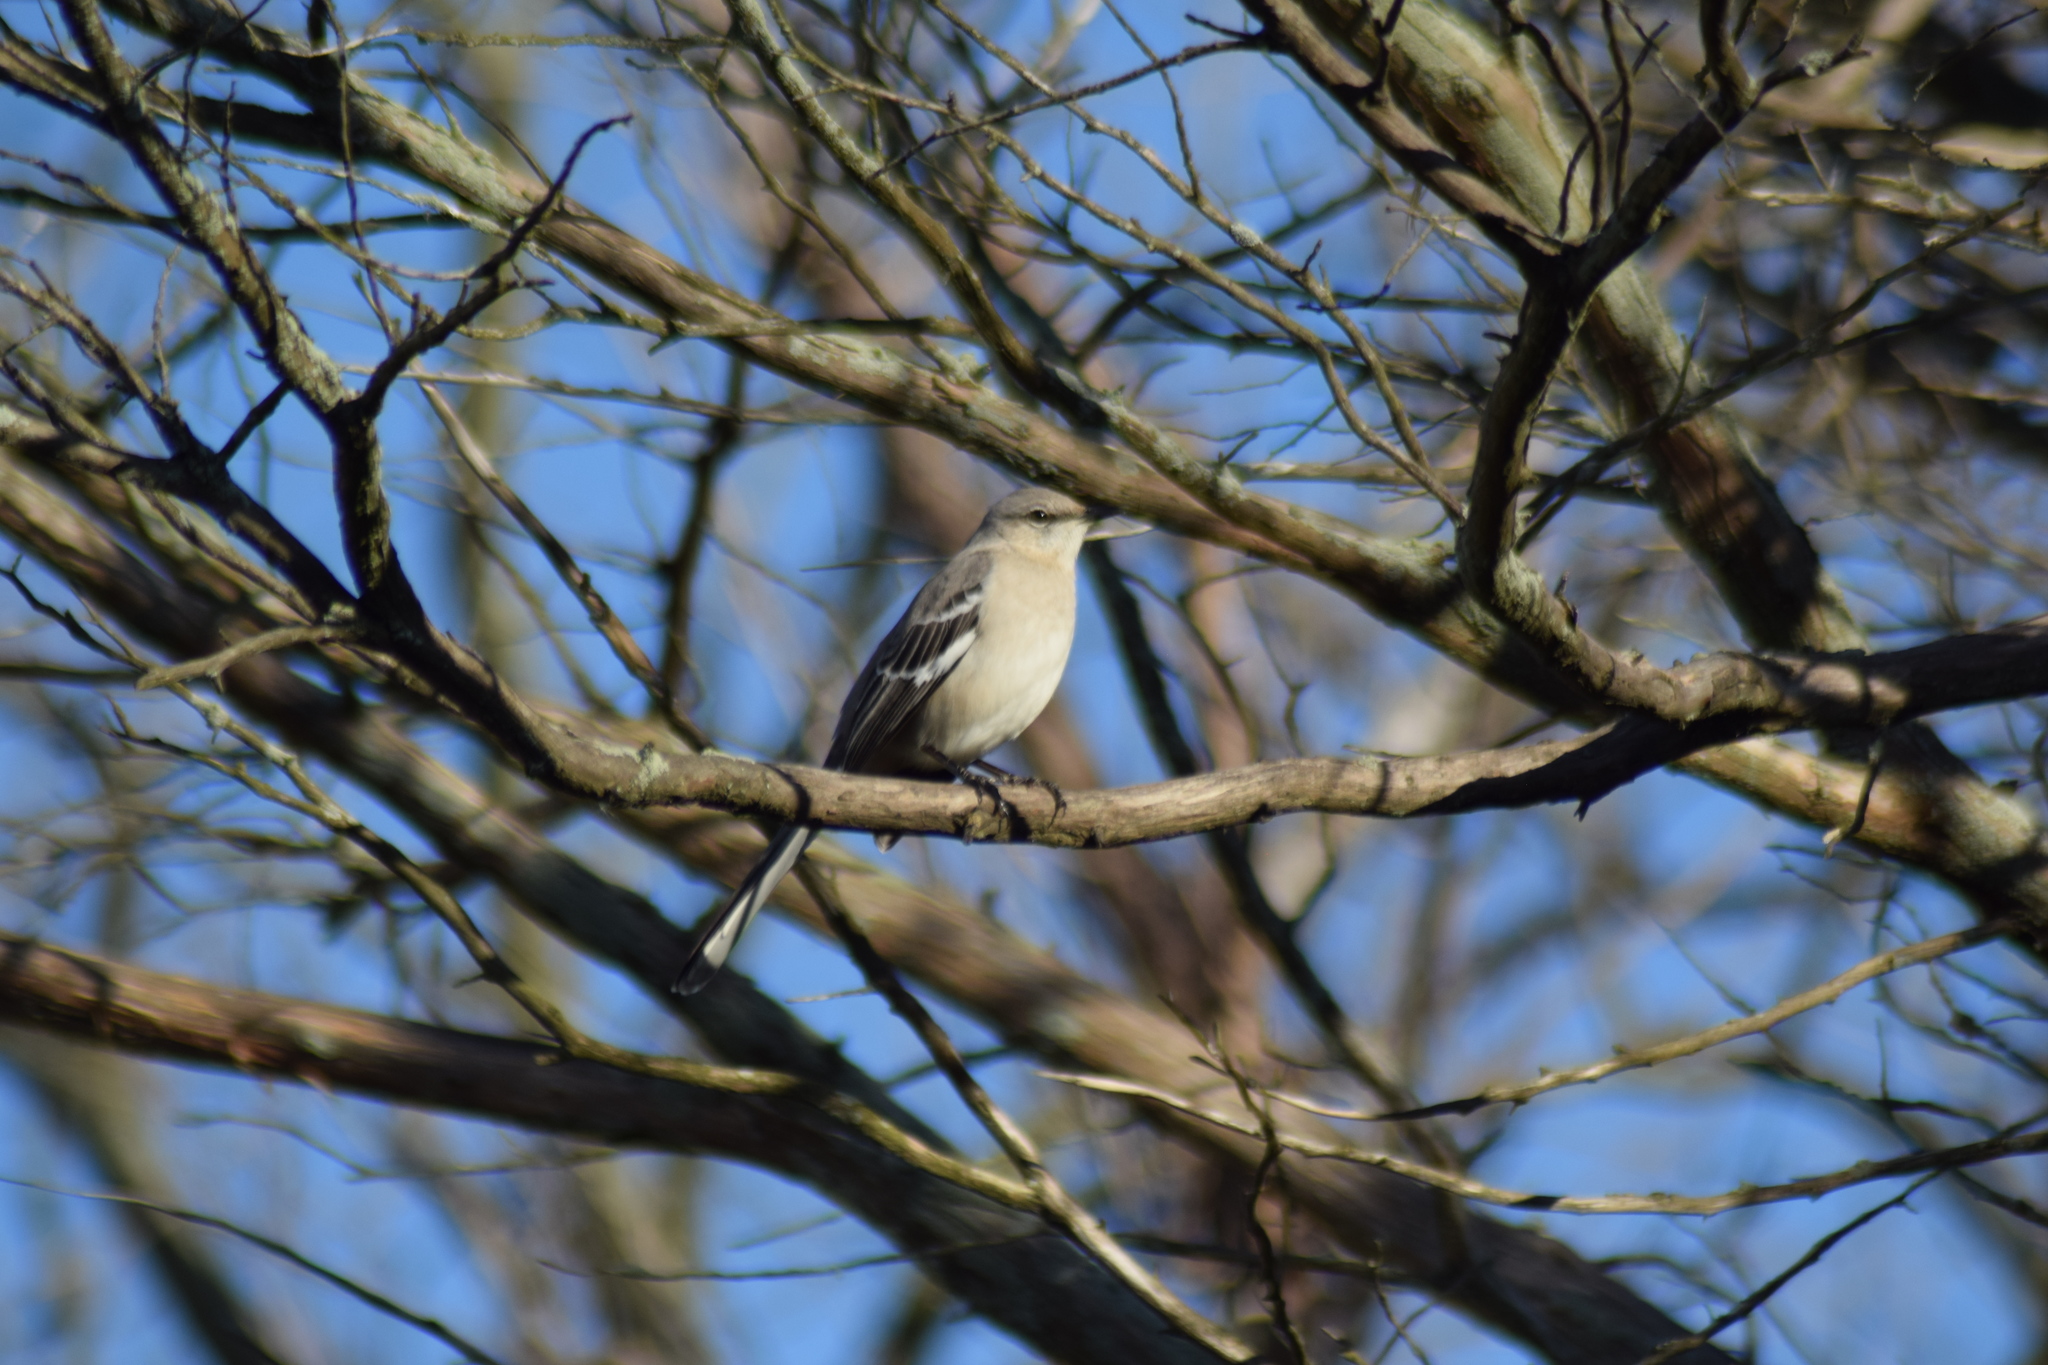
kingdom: Animalia
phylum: Chordata
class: Aves
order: Passeriformes
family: Mimidae
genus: Mimus
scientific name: Mimus polyglottos
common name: Northern mockingbird
